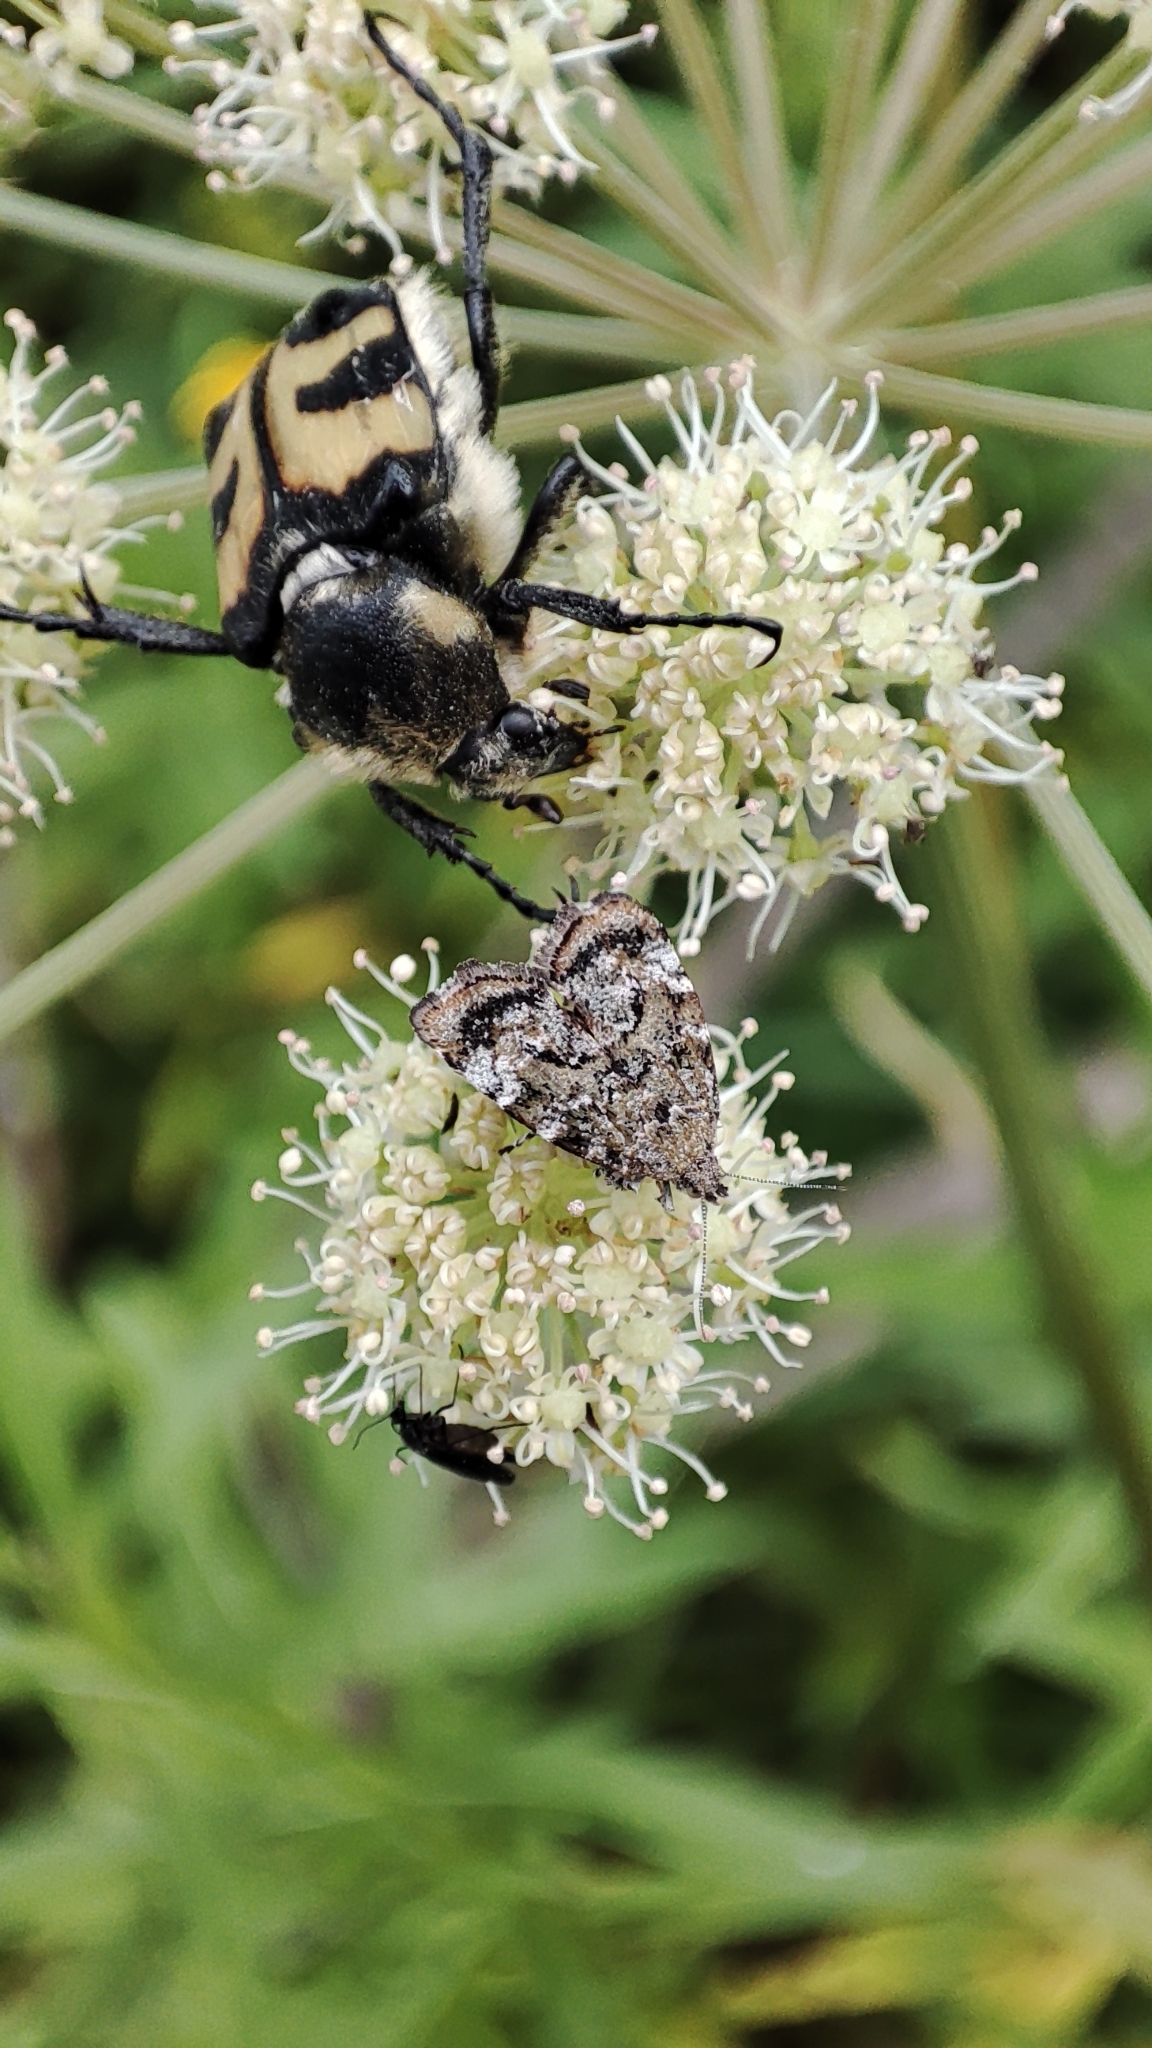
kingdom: Animalia
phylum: Arthropoda
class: Insecta
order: Lepidoptera
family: Choreutidae
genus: Choreutis
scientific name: Choreutis diana
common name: Inverness twitcher
